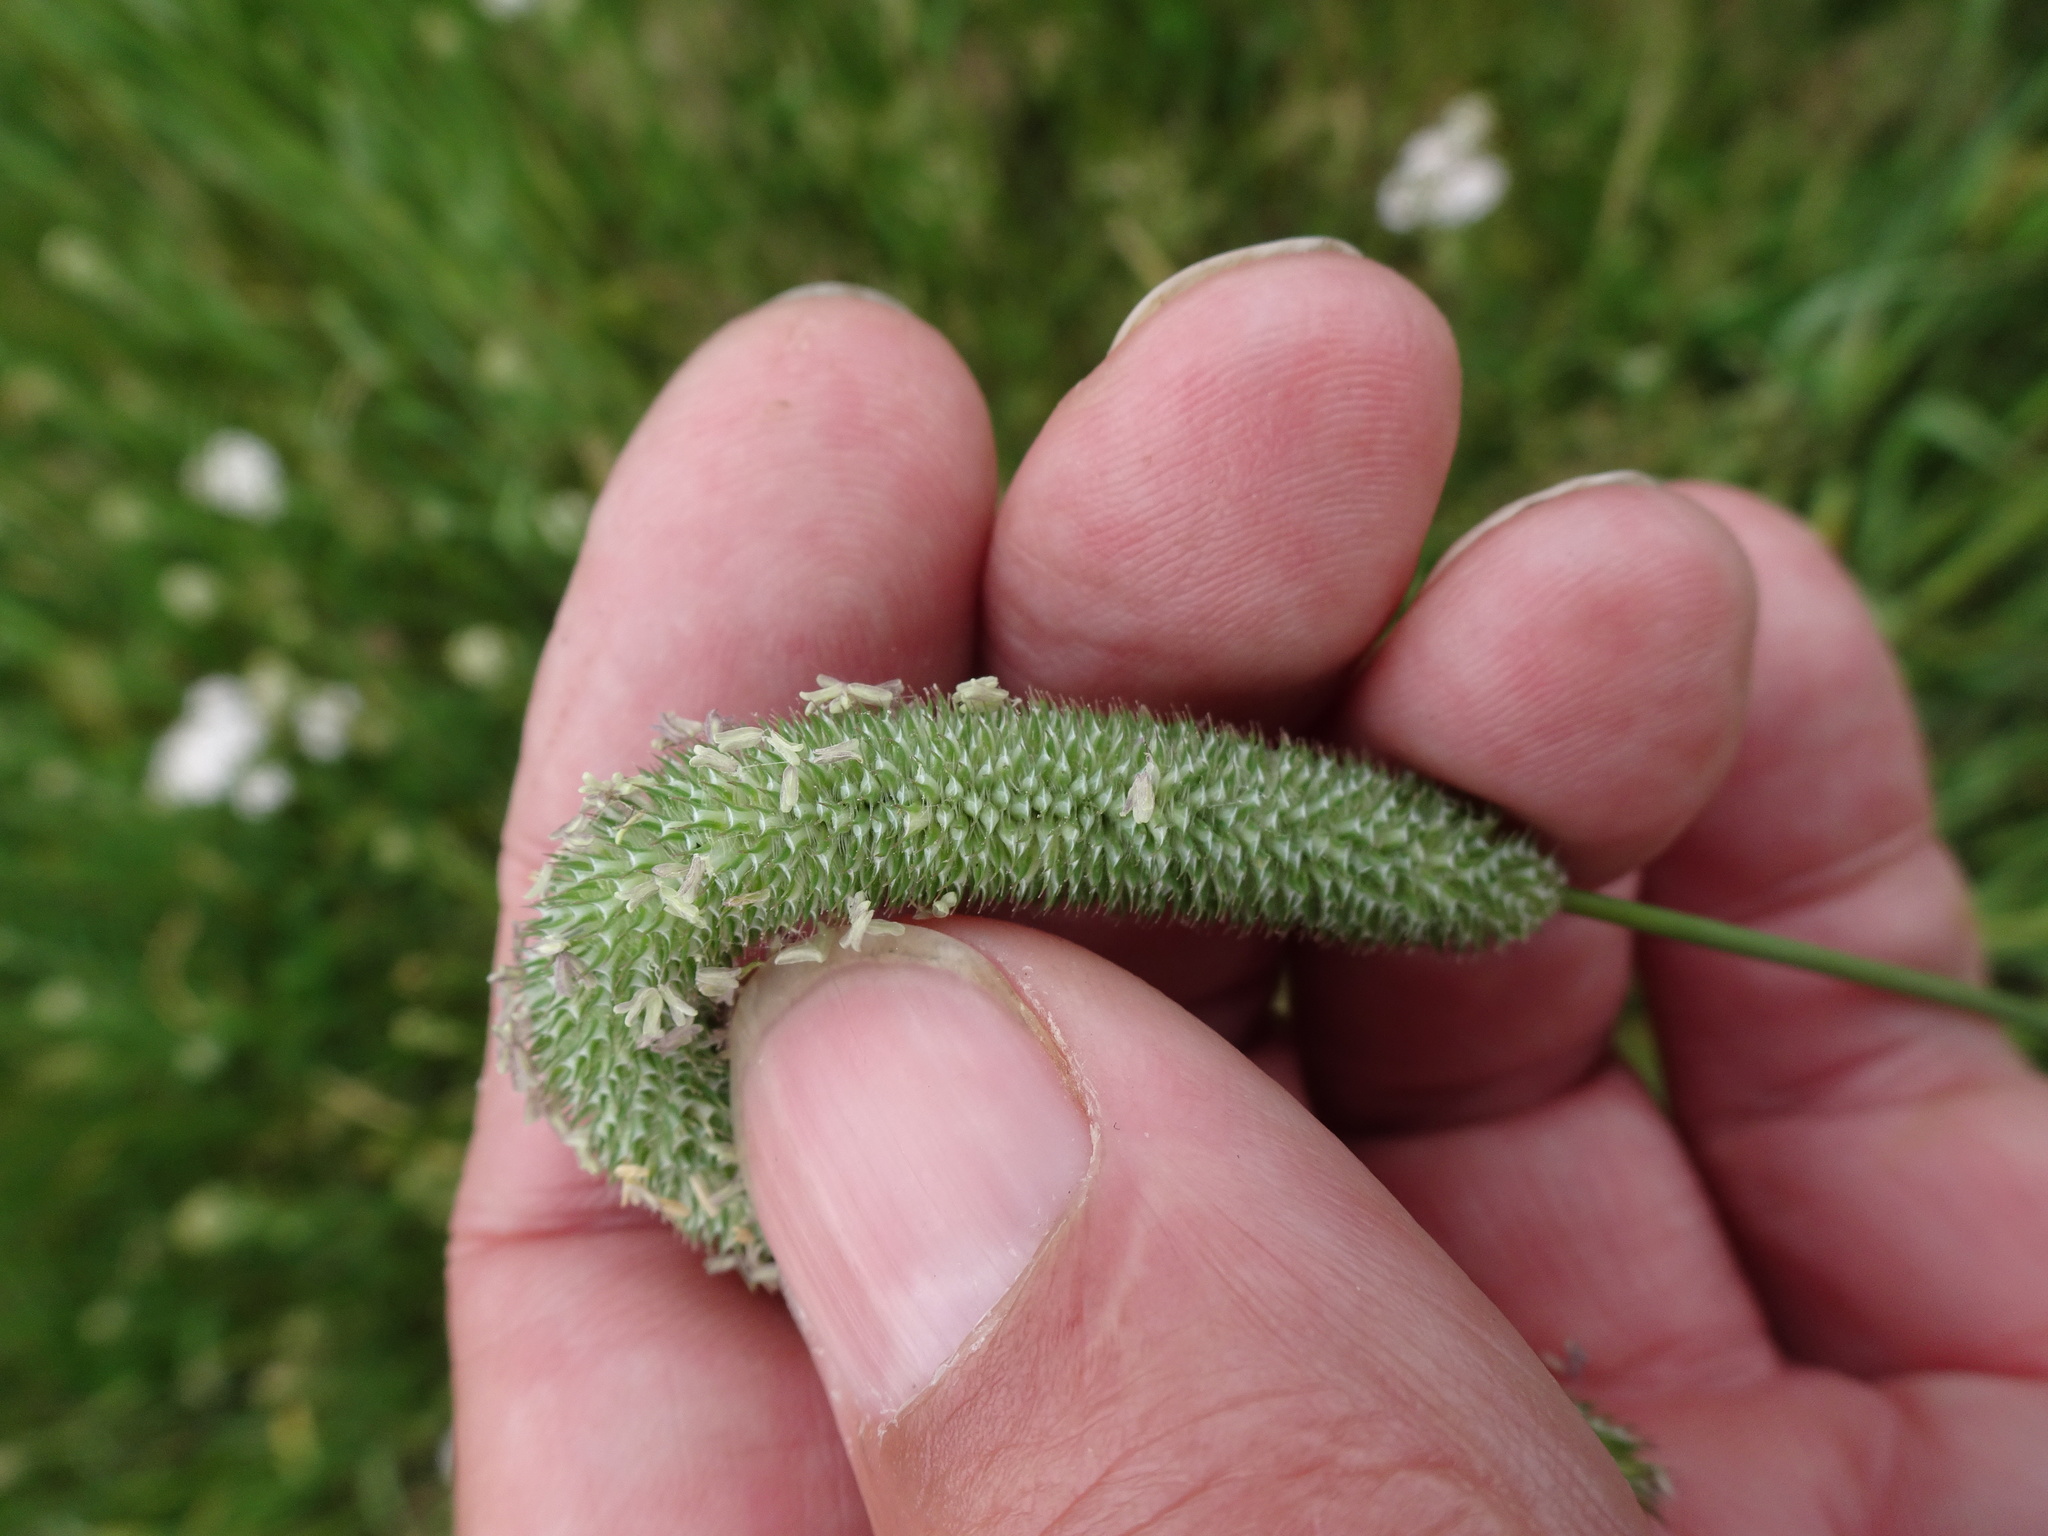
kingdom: Plantae
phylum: Tracheophyta
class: Liliopsida
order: Poales
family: Poaceae
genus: Phleum
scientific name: Phleum pratense
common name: Timothy grass
